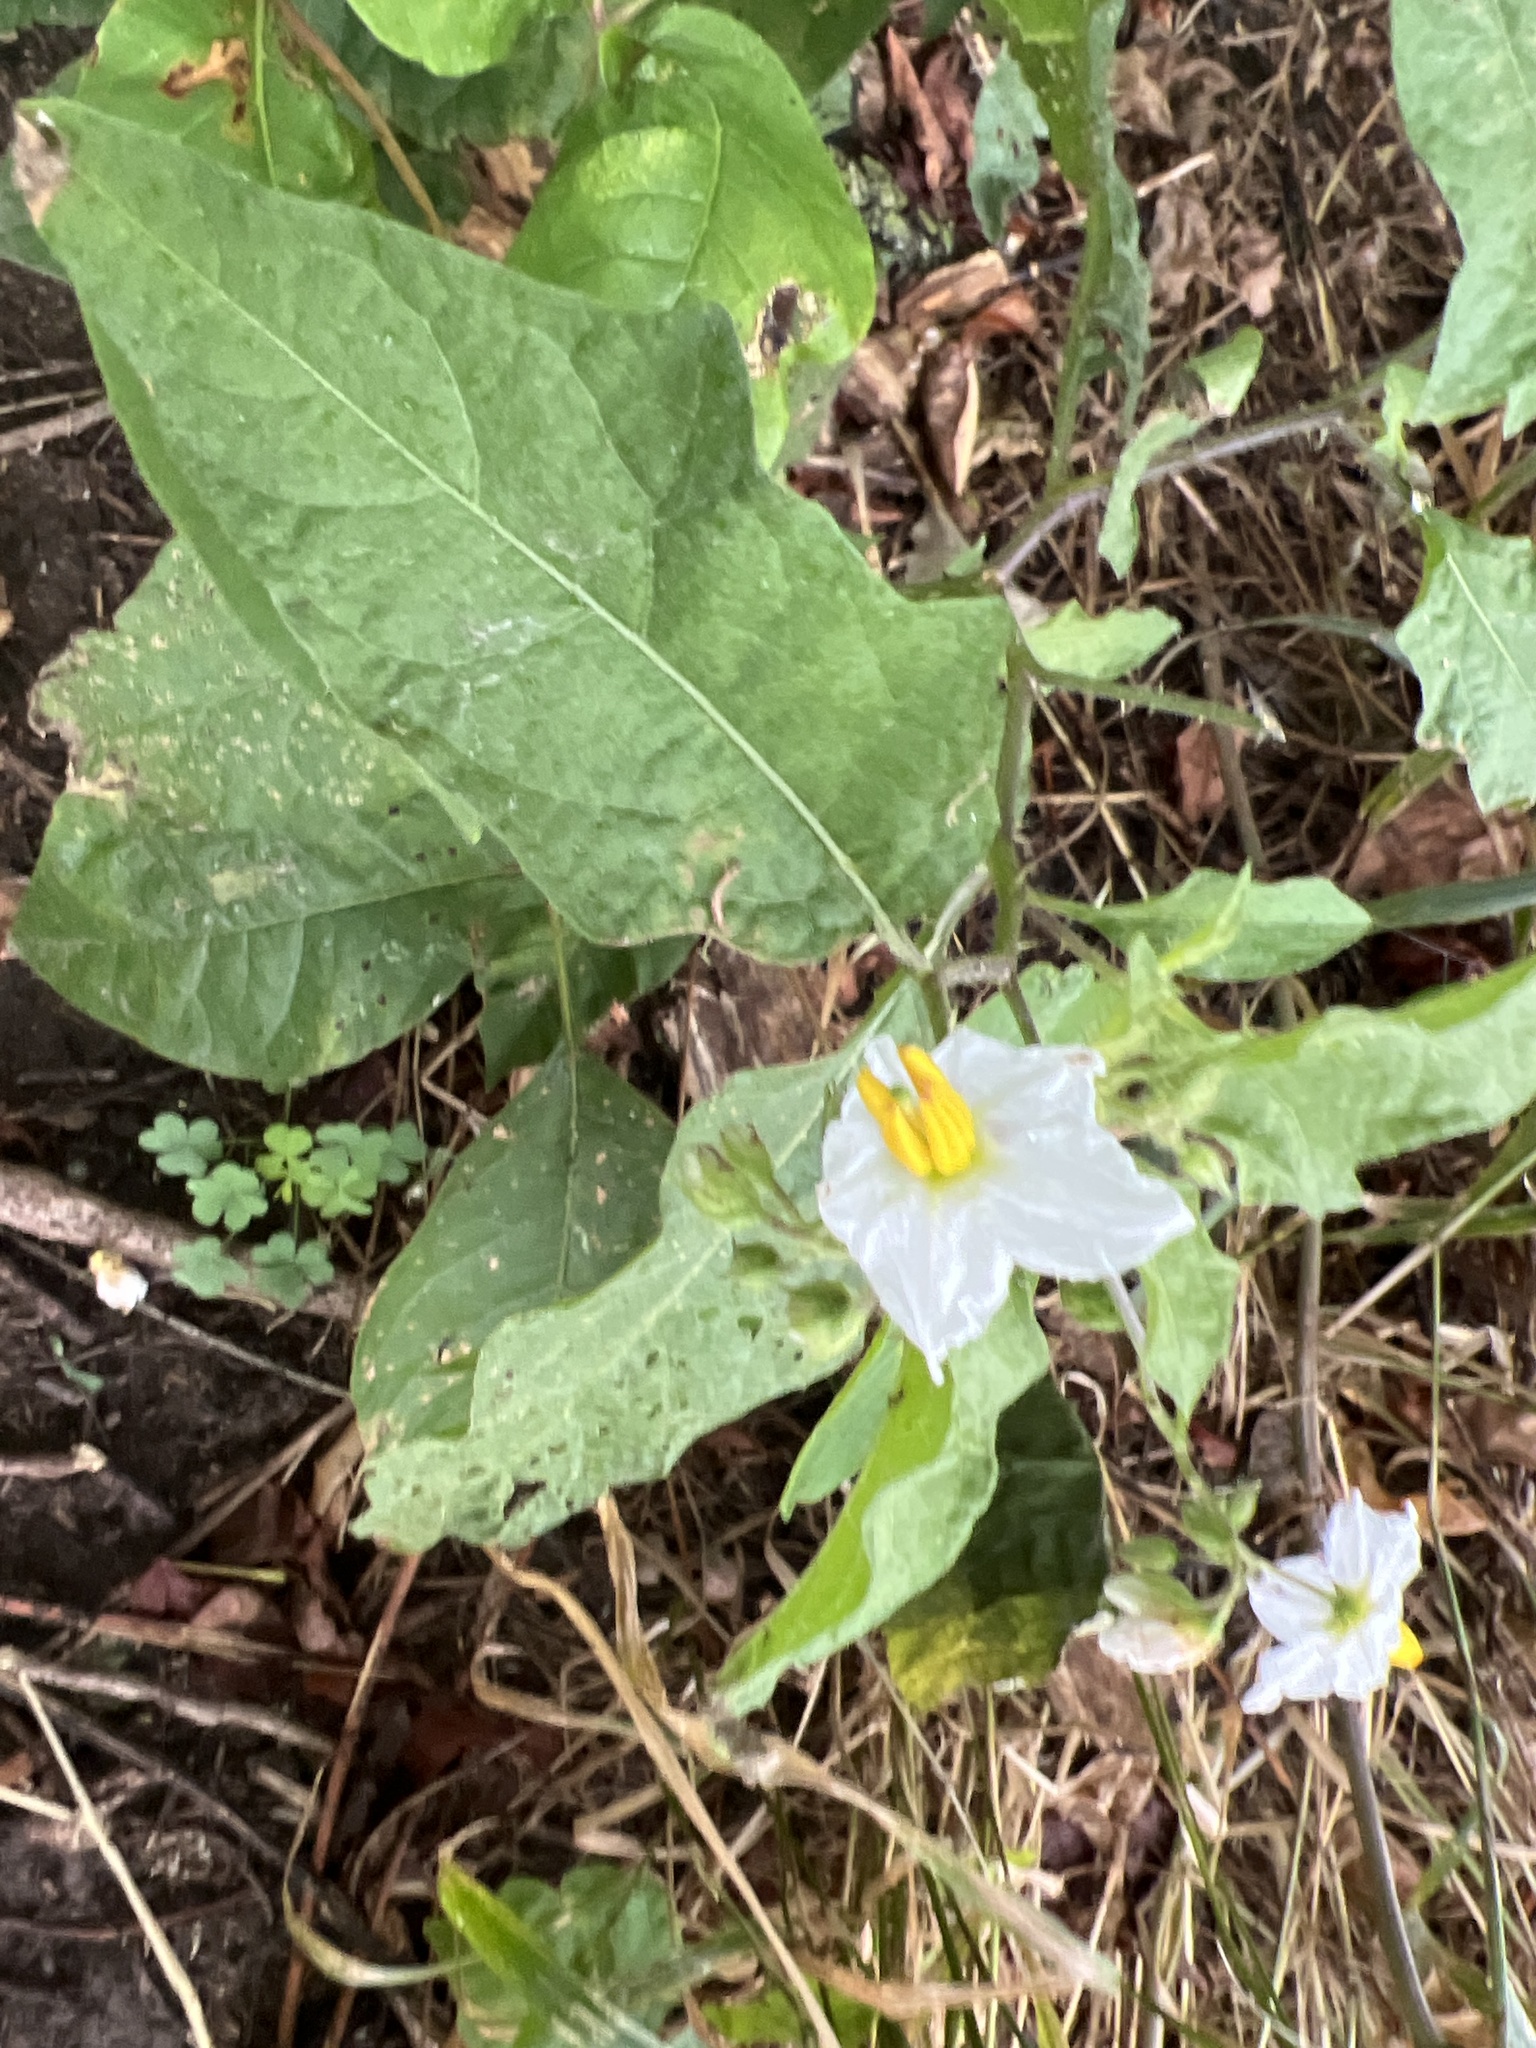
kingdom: Plantae
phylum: Tracheophyta
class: Magnoliopsida
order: Solanales
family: Solanaceae
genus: Solanum
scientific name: Solanum carolinense
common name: Horse-nettle
